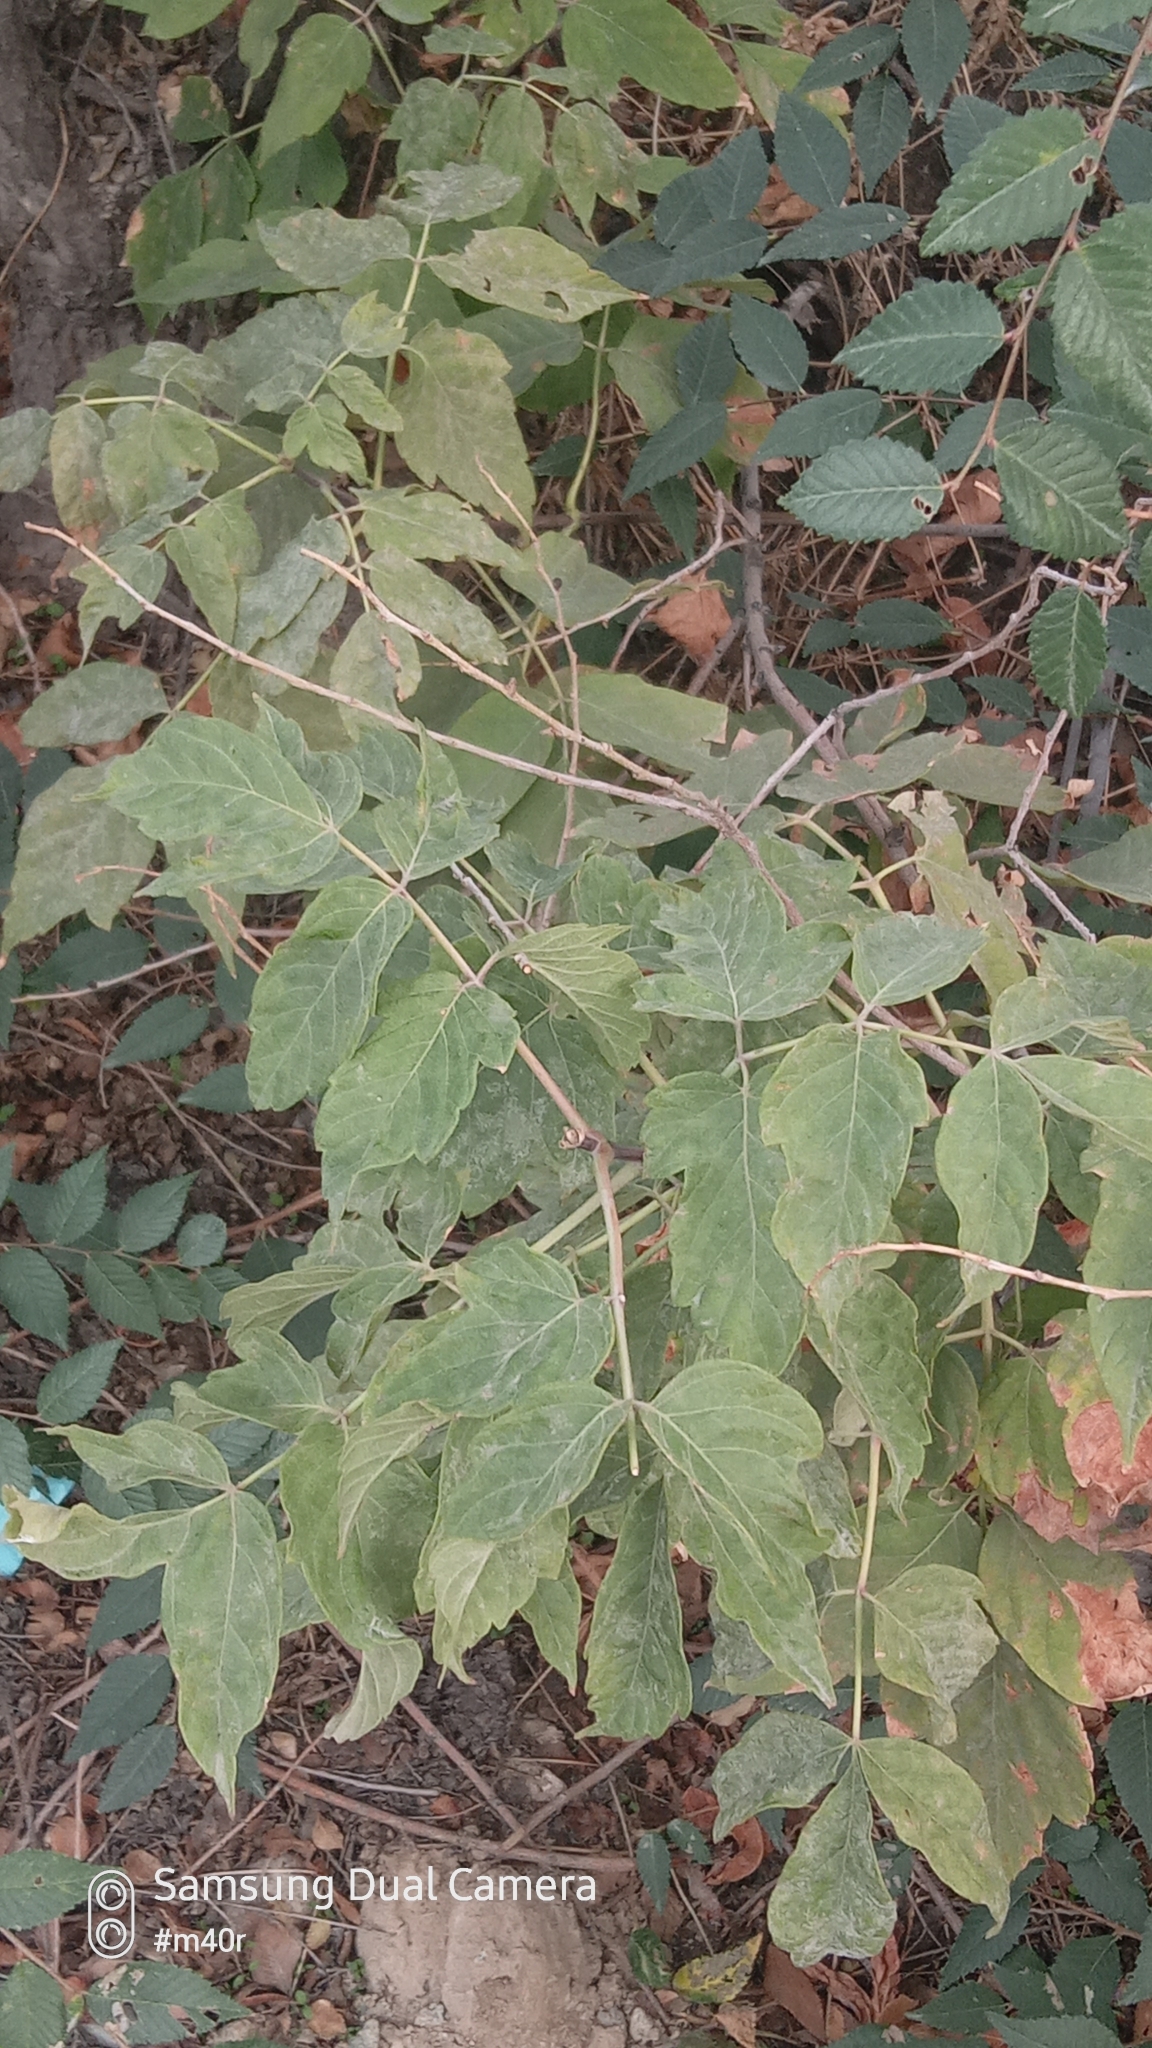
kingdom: Plantae
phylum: Tracheophyta
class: Magnoliopsida
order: Sapindales
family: Sapindaceae
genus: Acer
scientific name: Acer negundo
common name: Ashleaf maple
